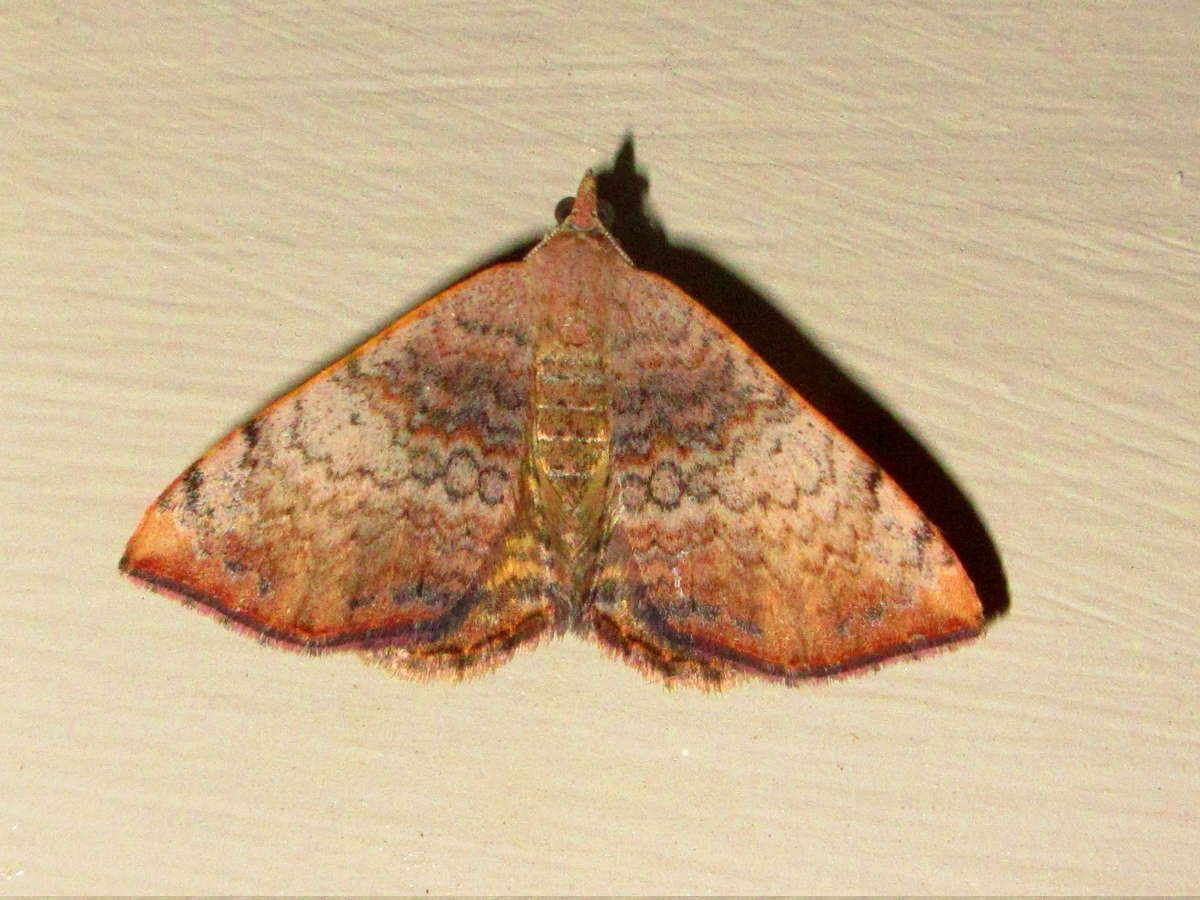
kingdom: Animalia
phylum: Arthropoda
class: Insecta
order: Lepidoptera
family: Geometridae
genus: Chrysolarentia
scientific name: Chrysolarentia mecynata
